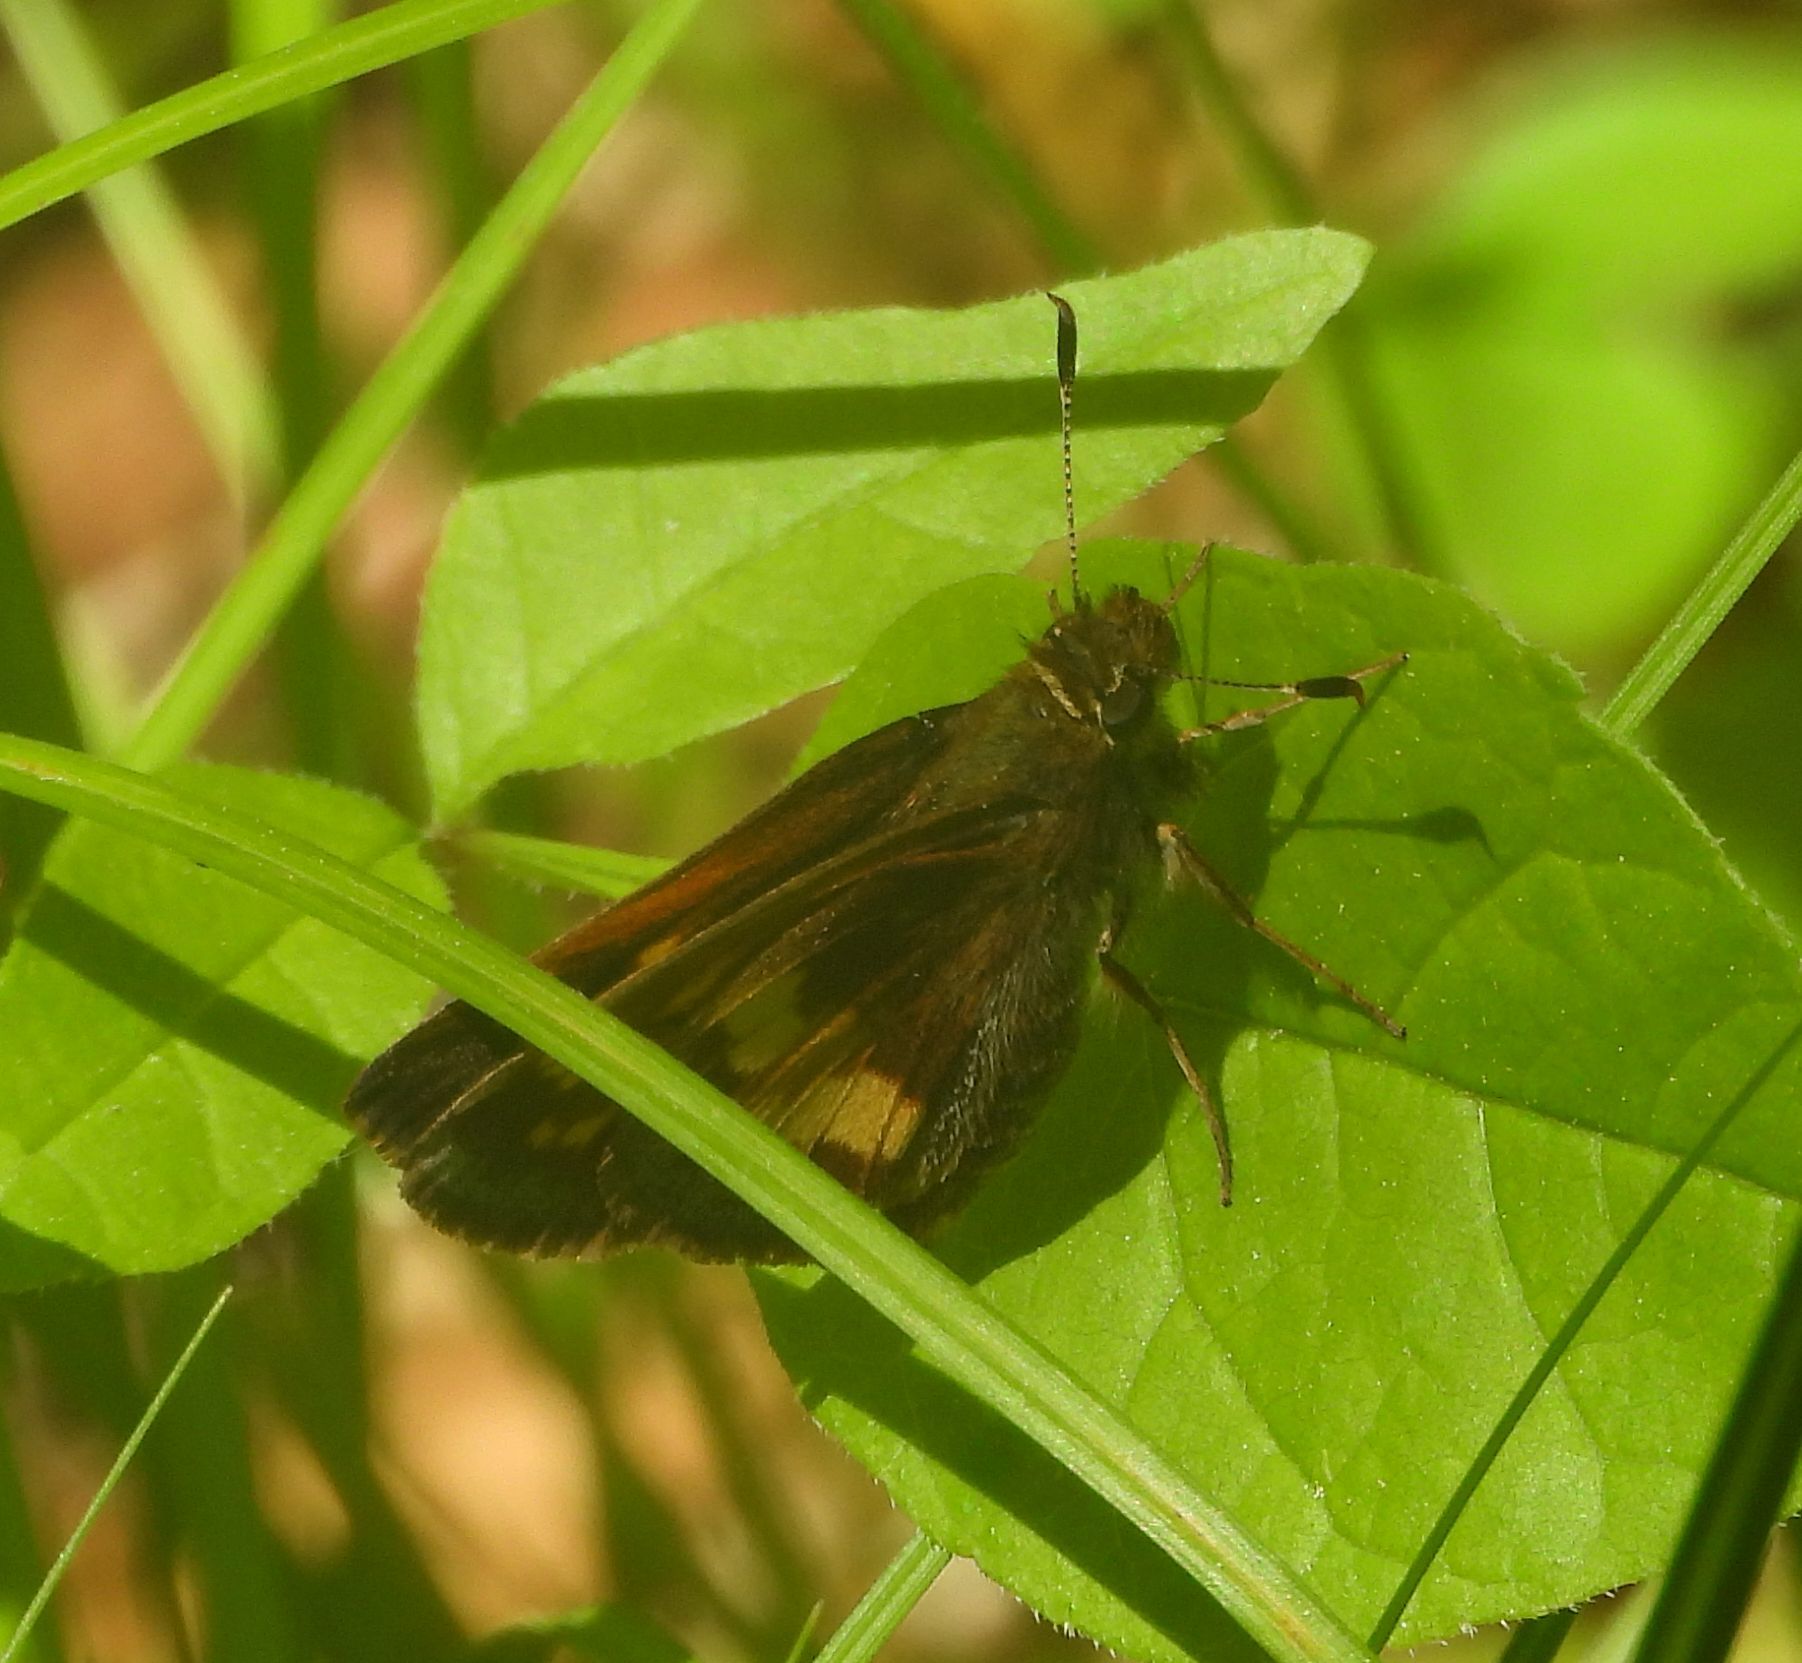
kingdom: Animalia
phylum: Arthropoda
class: Insecta
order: Lepidoptera
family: Hesperiidae
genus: Lon
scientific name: Lon hobomok
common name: Hobomok skipper
